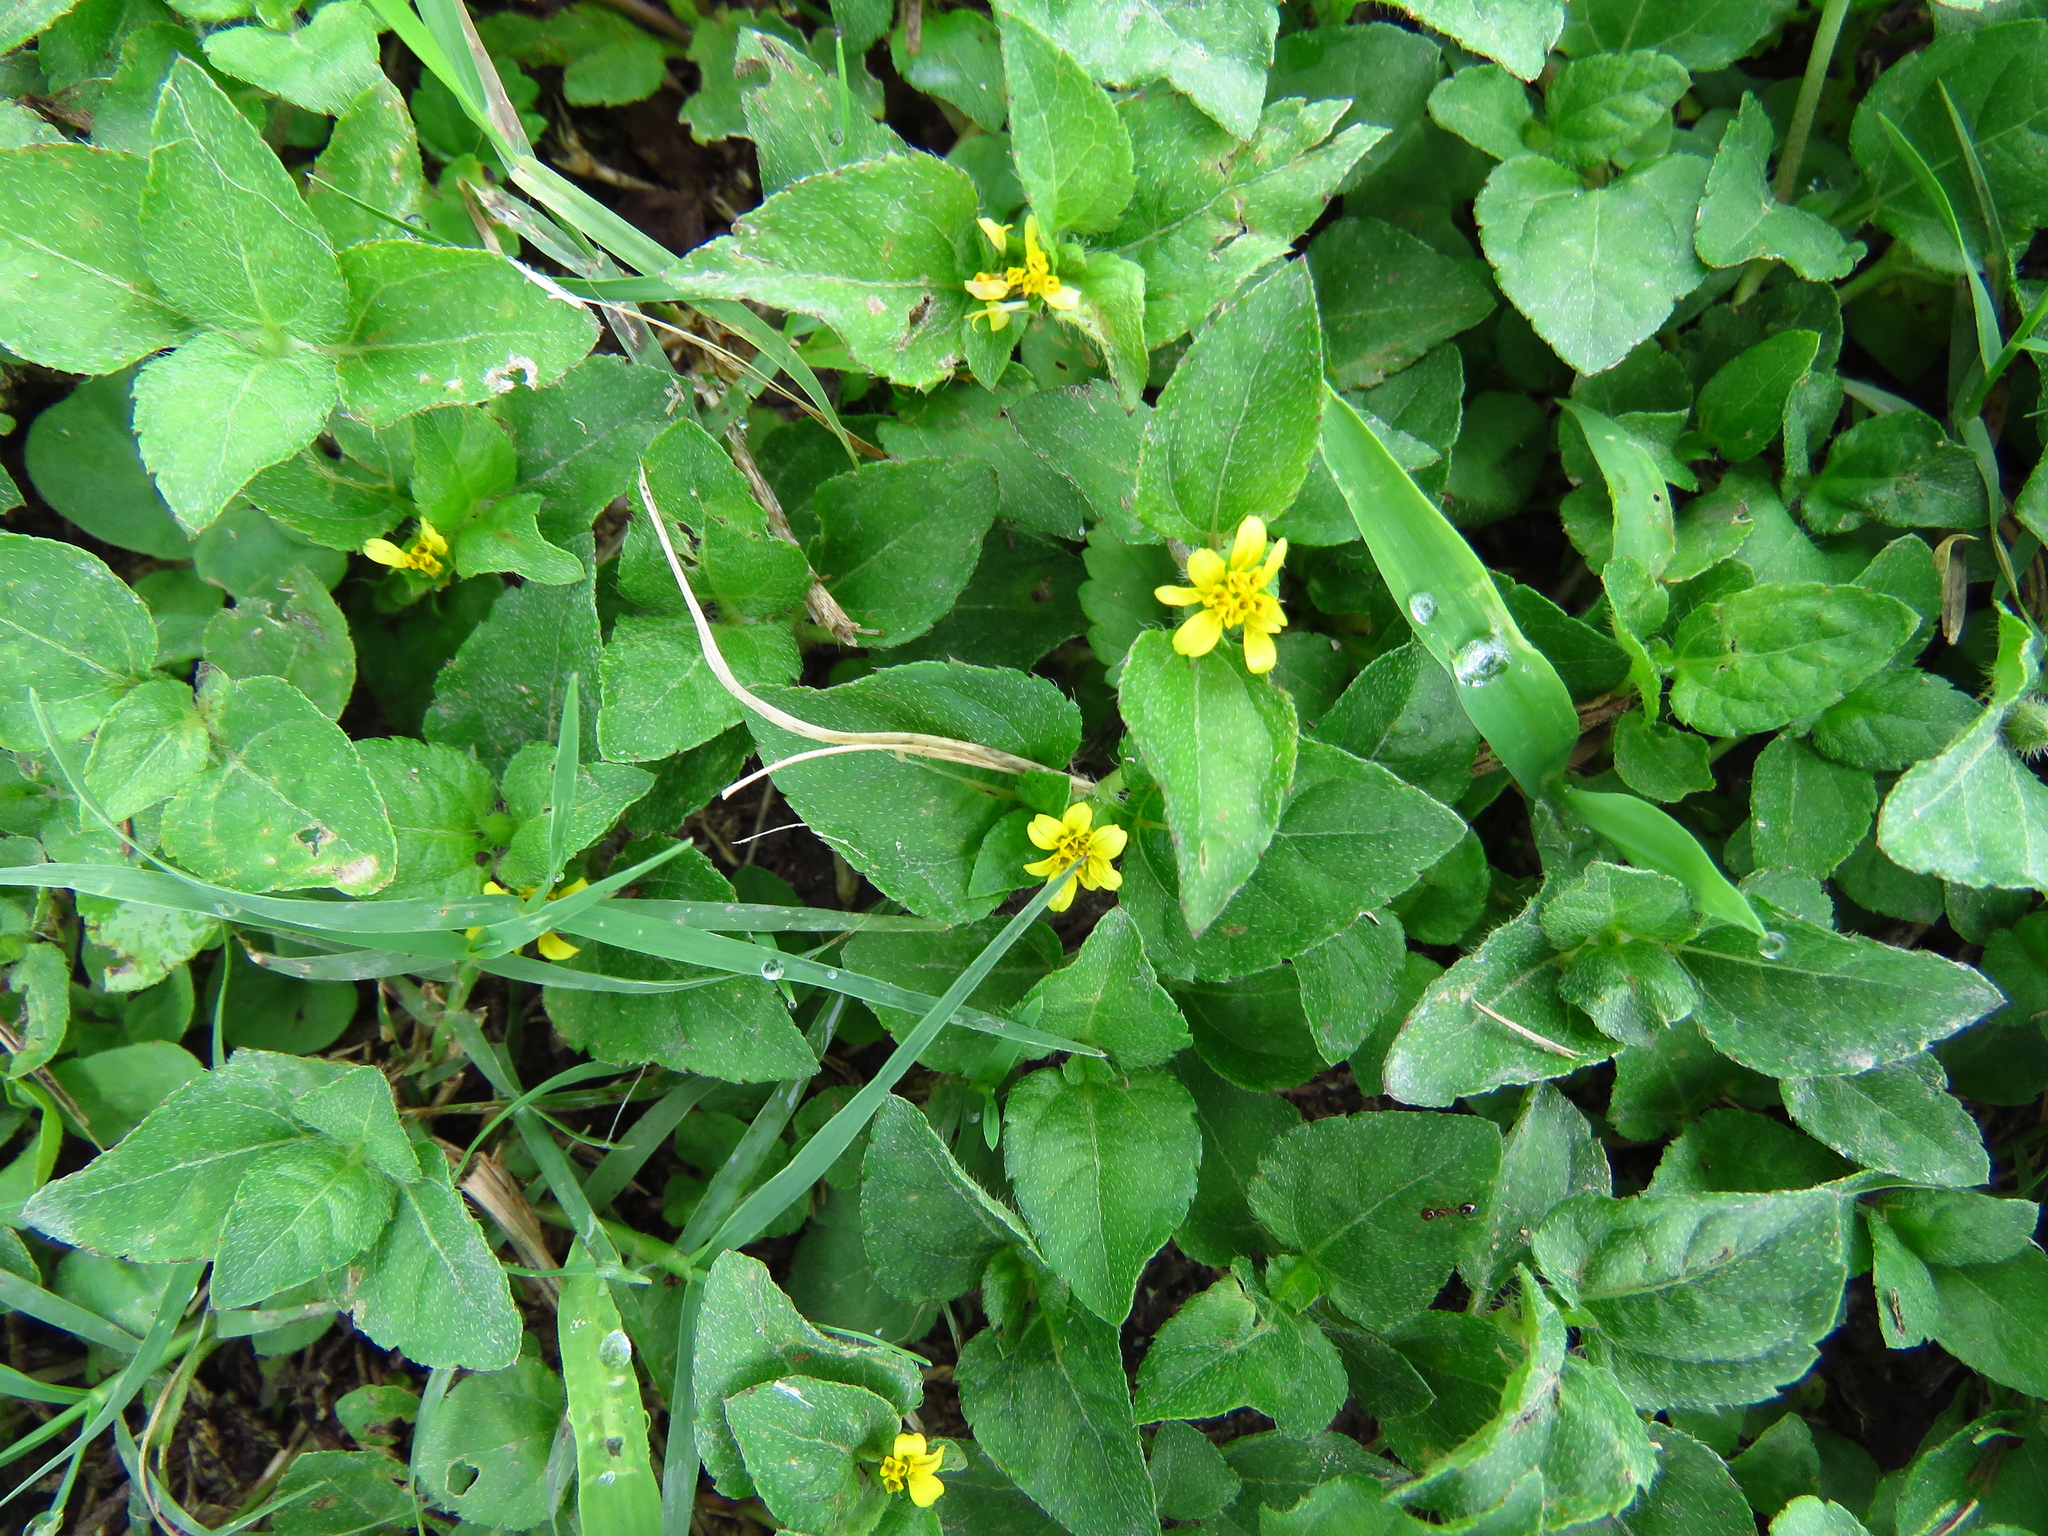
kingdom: Plantae
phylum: Tracheophyta
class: Magnoliopsida
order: Asterales
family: Asteraceae
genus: Calyptocarpus
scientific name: Calyptocarpus vialis
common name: Straggler daisy
